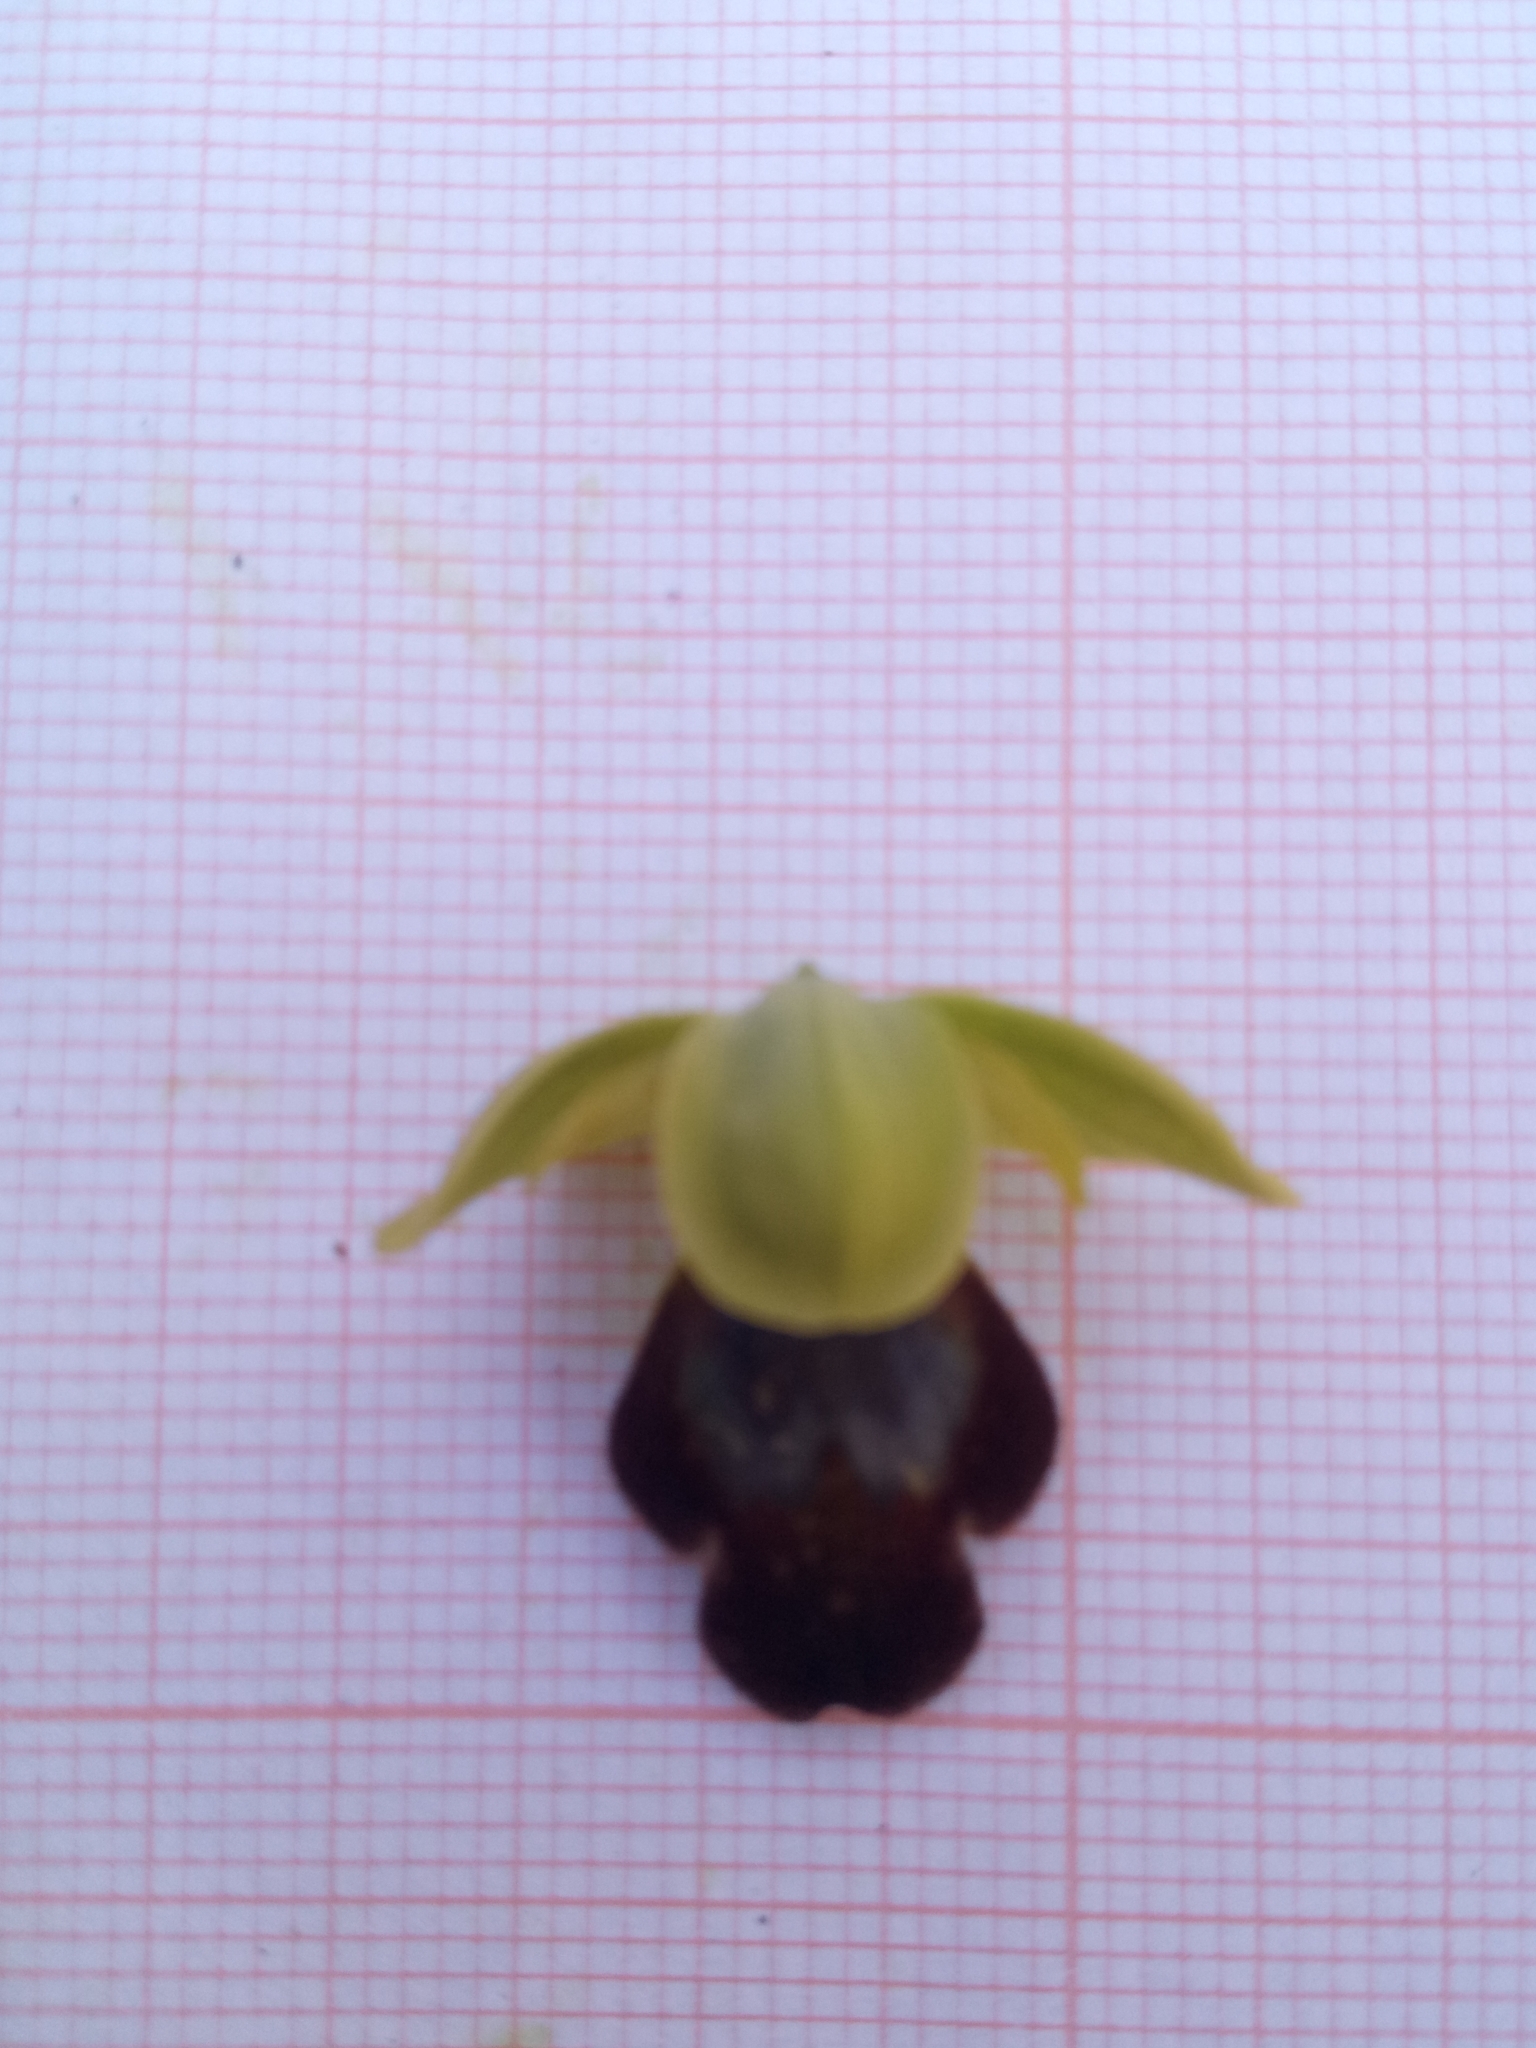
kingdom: Plantae
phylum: Tracheophyta
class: Liliopsida
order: Asparagales
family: Orchidaceae
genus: Ophrys
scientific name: Ophrys fusca
